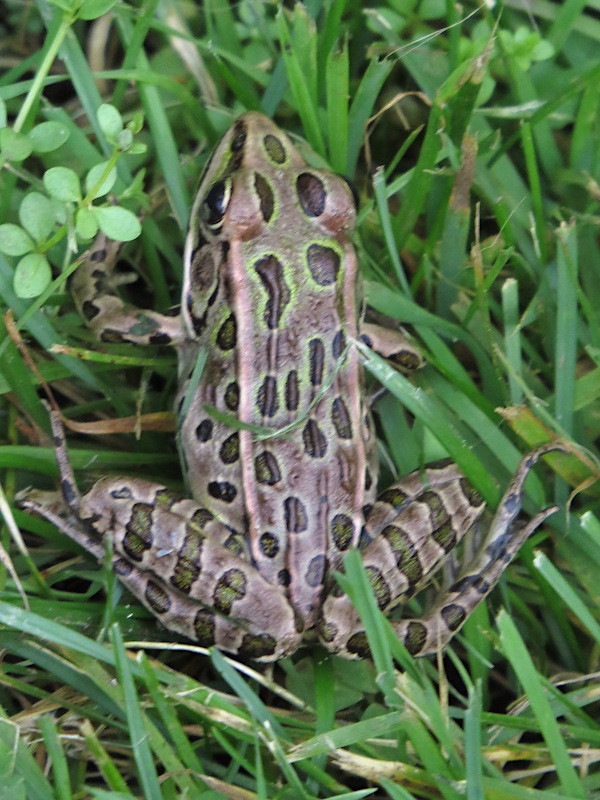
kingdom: Animalia
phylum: Chordata
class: Amphibia
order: Anura
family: Ranidae
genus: Lithobates
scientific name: Lithobates pipiens
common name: Northern leopard frog
